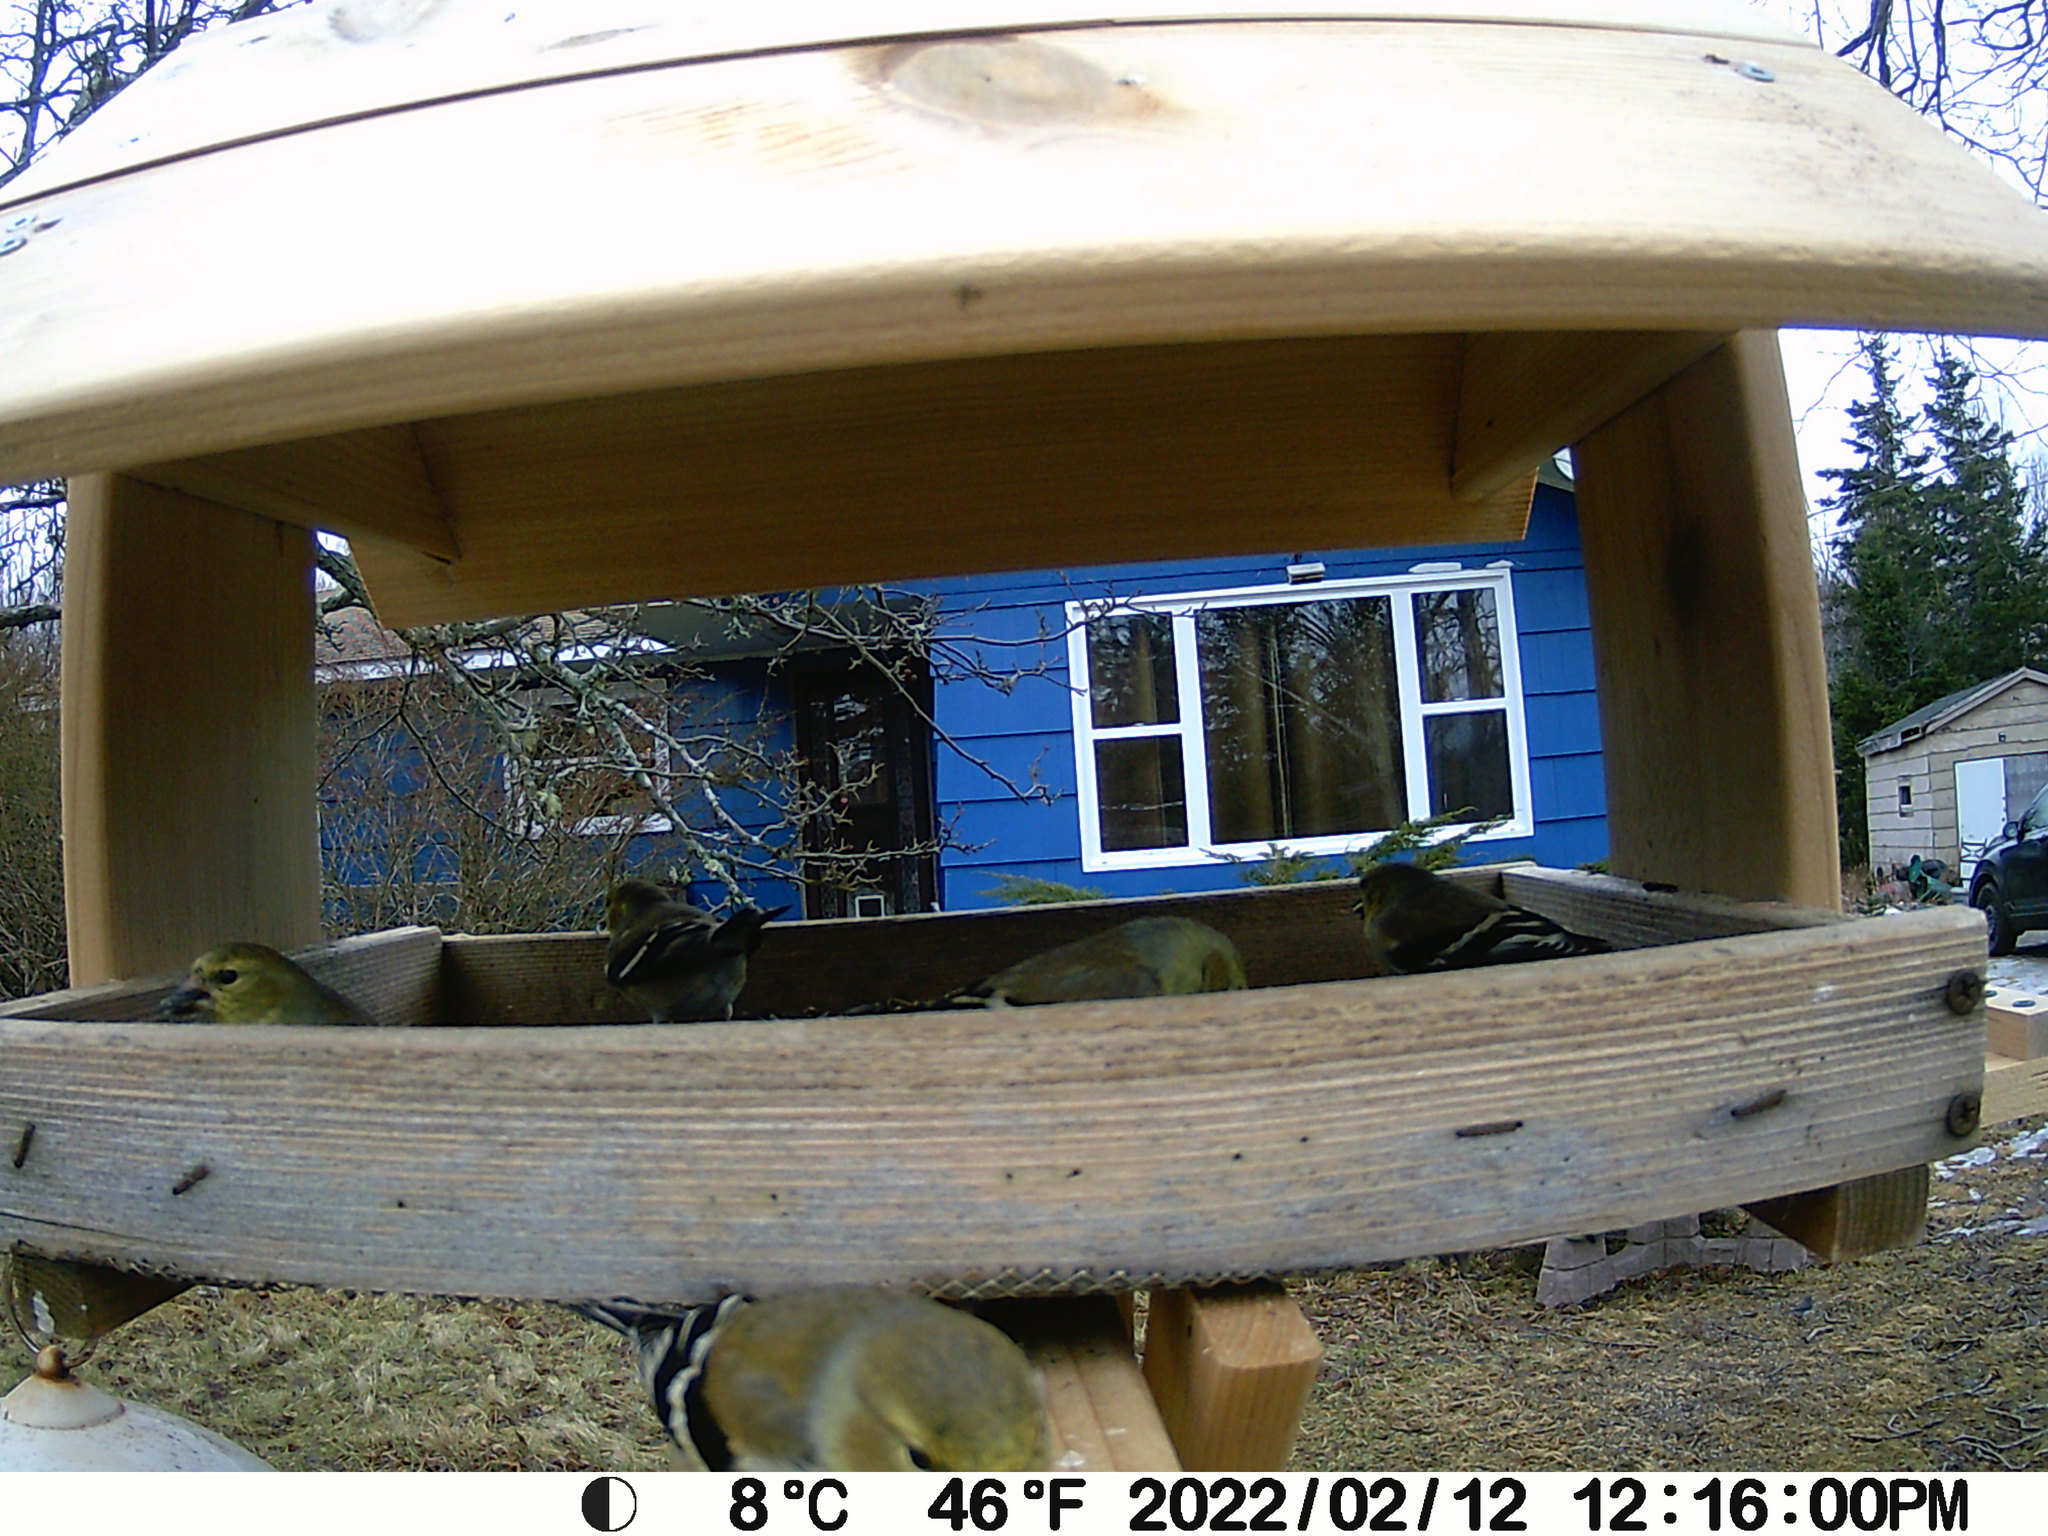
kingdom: Animalia
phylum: Chordata
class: Aves
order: Passeriformes
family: Passerellidae
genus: Junco
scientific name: Junco hyemalis
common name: Dark-eyed junco
